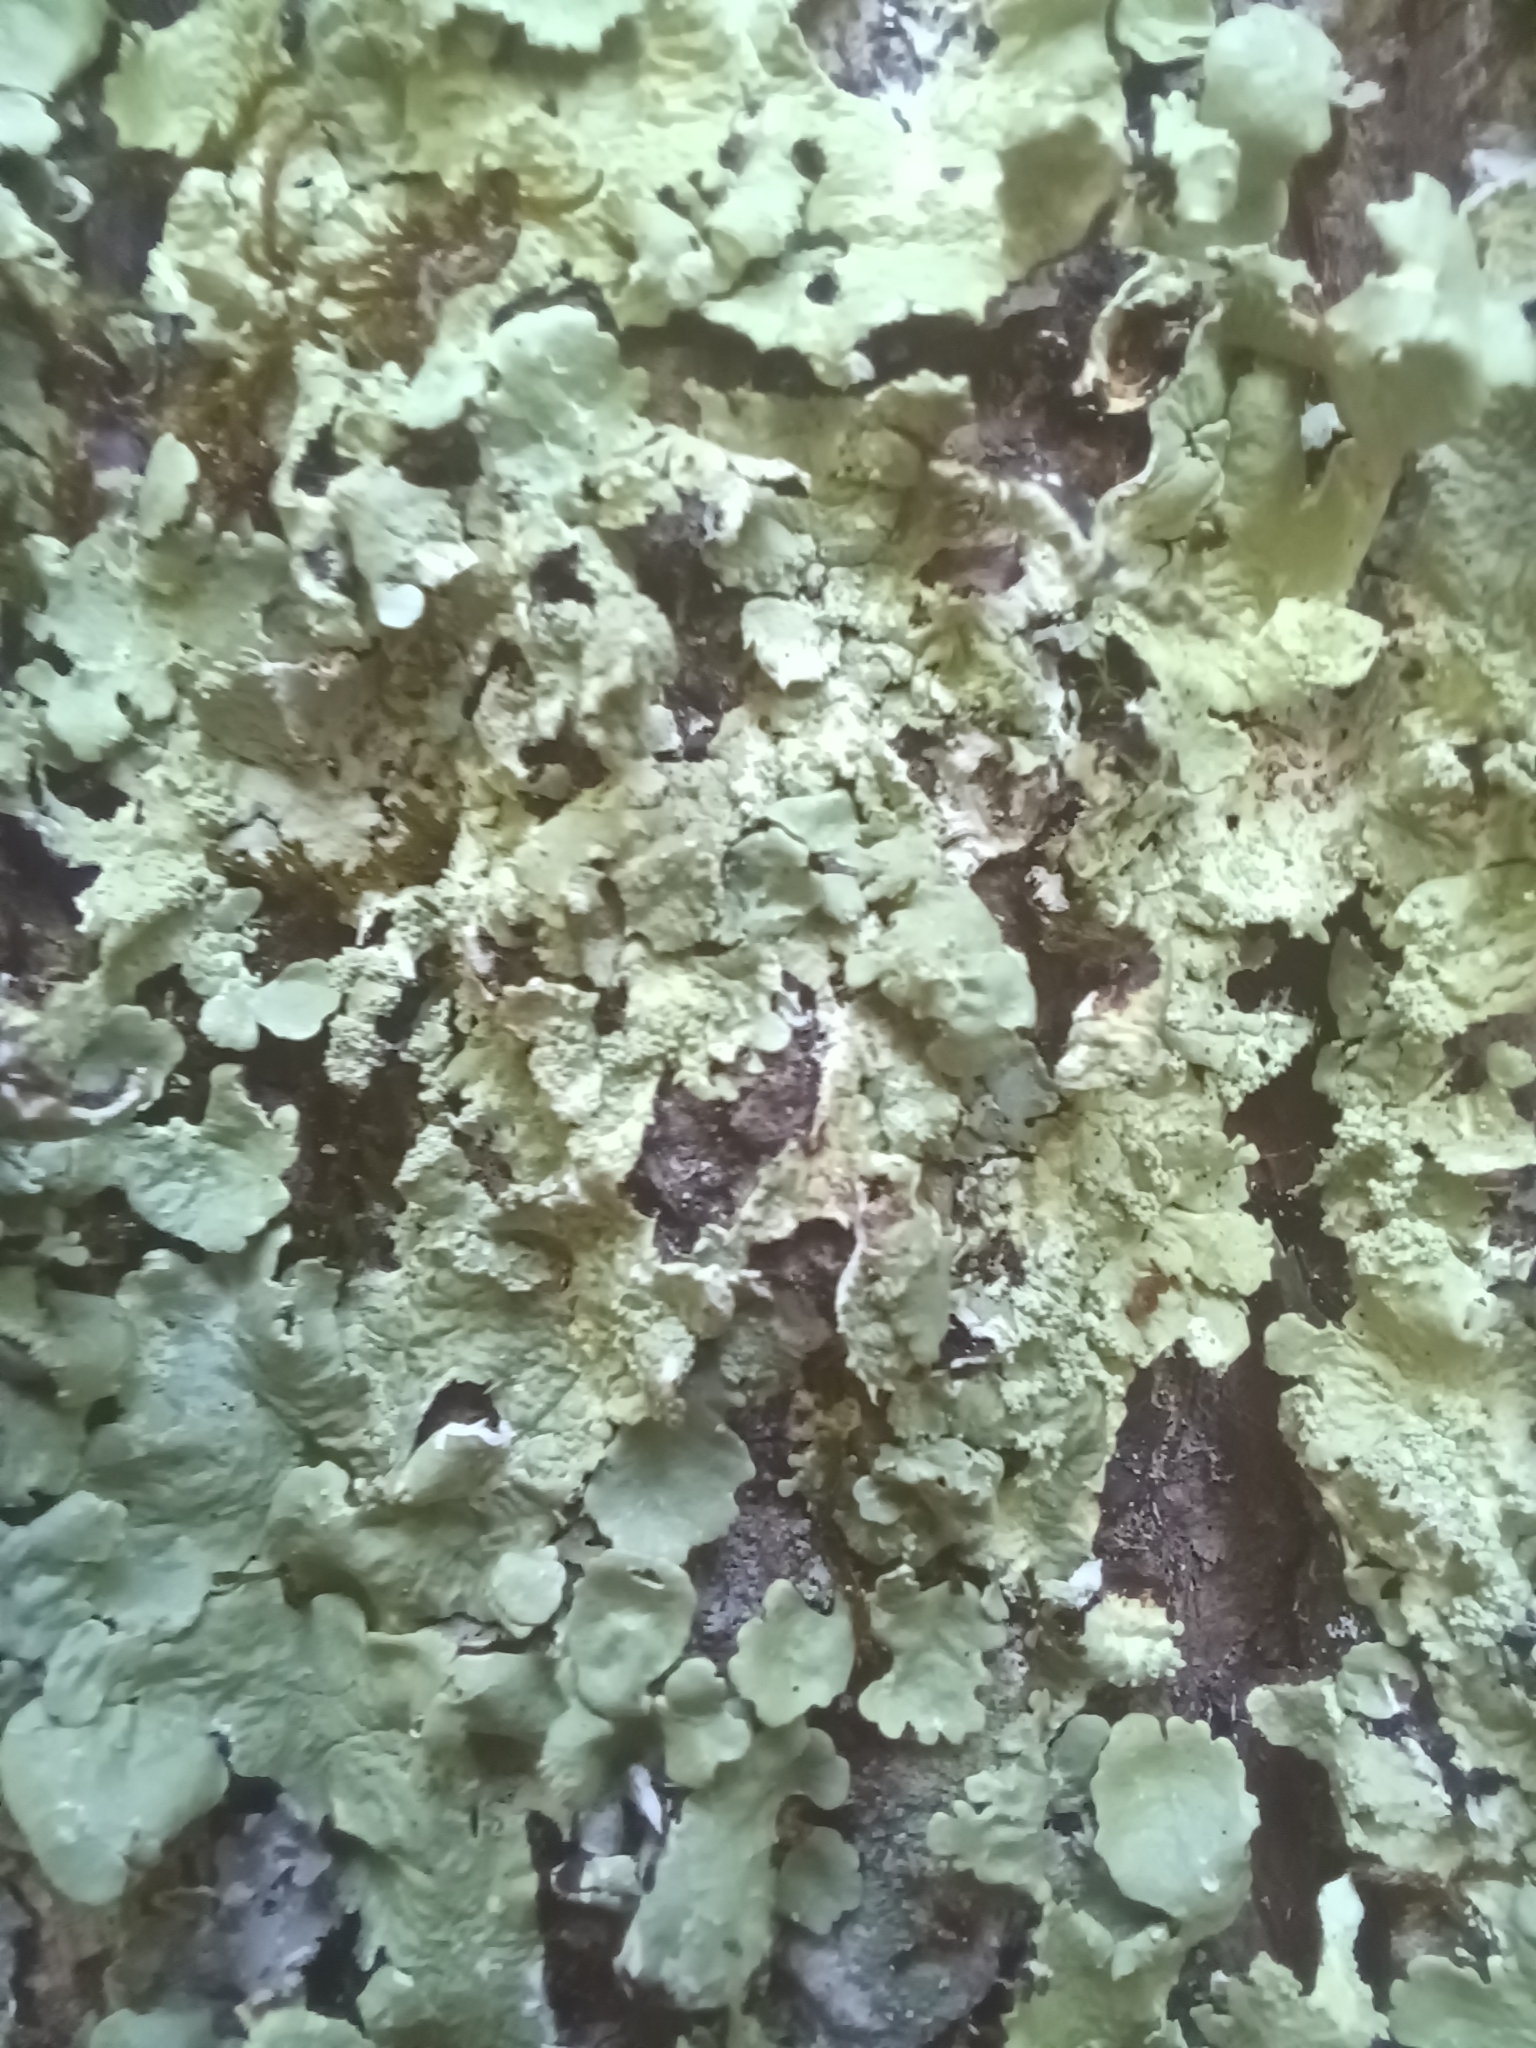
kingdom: Fungi
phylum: Ascomycota
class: Lecanoromycetes
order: Lecanorales
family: Parmeliaceae
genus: Flavoparmelia
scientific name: Flavoparmelia caperata
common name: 40-mile per hour lichen
